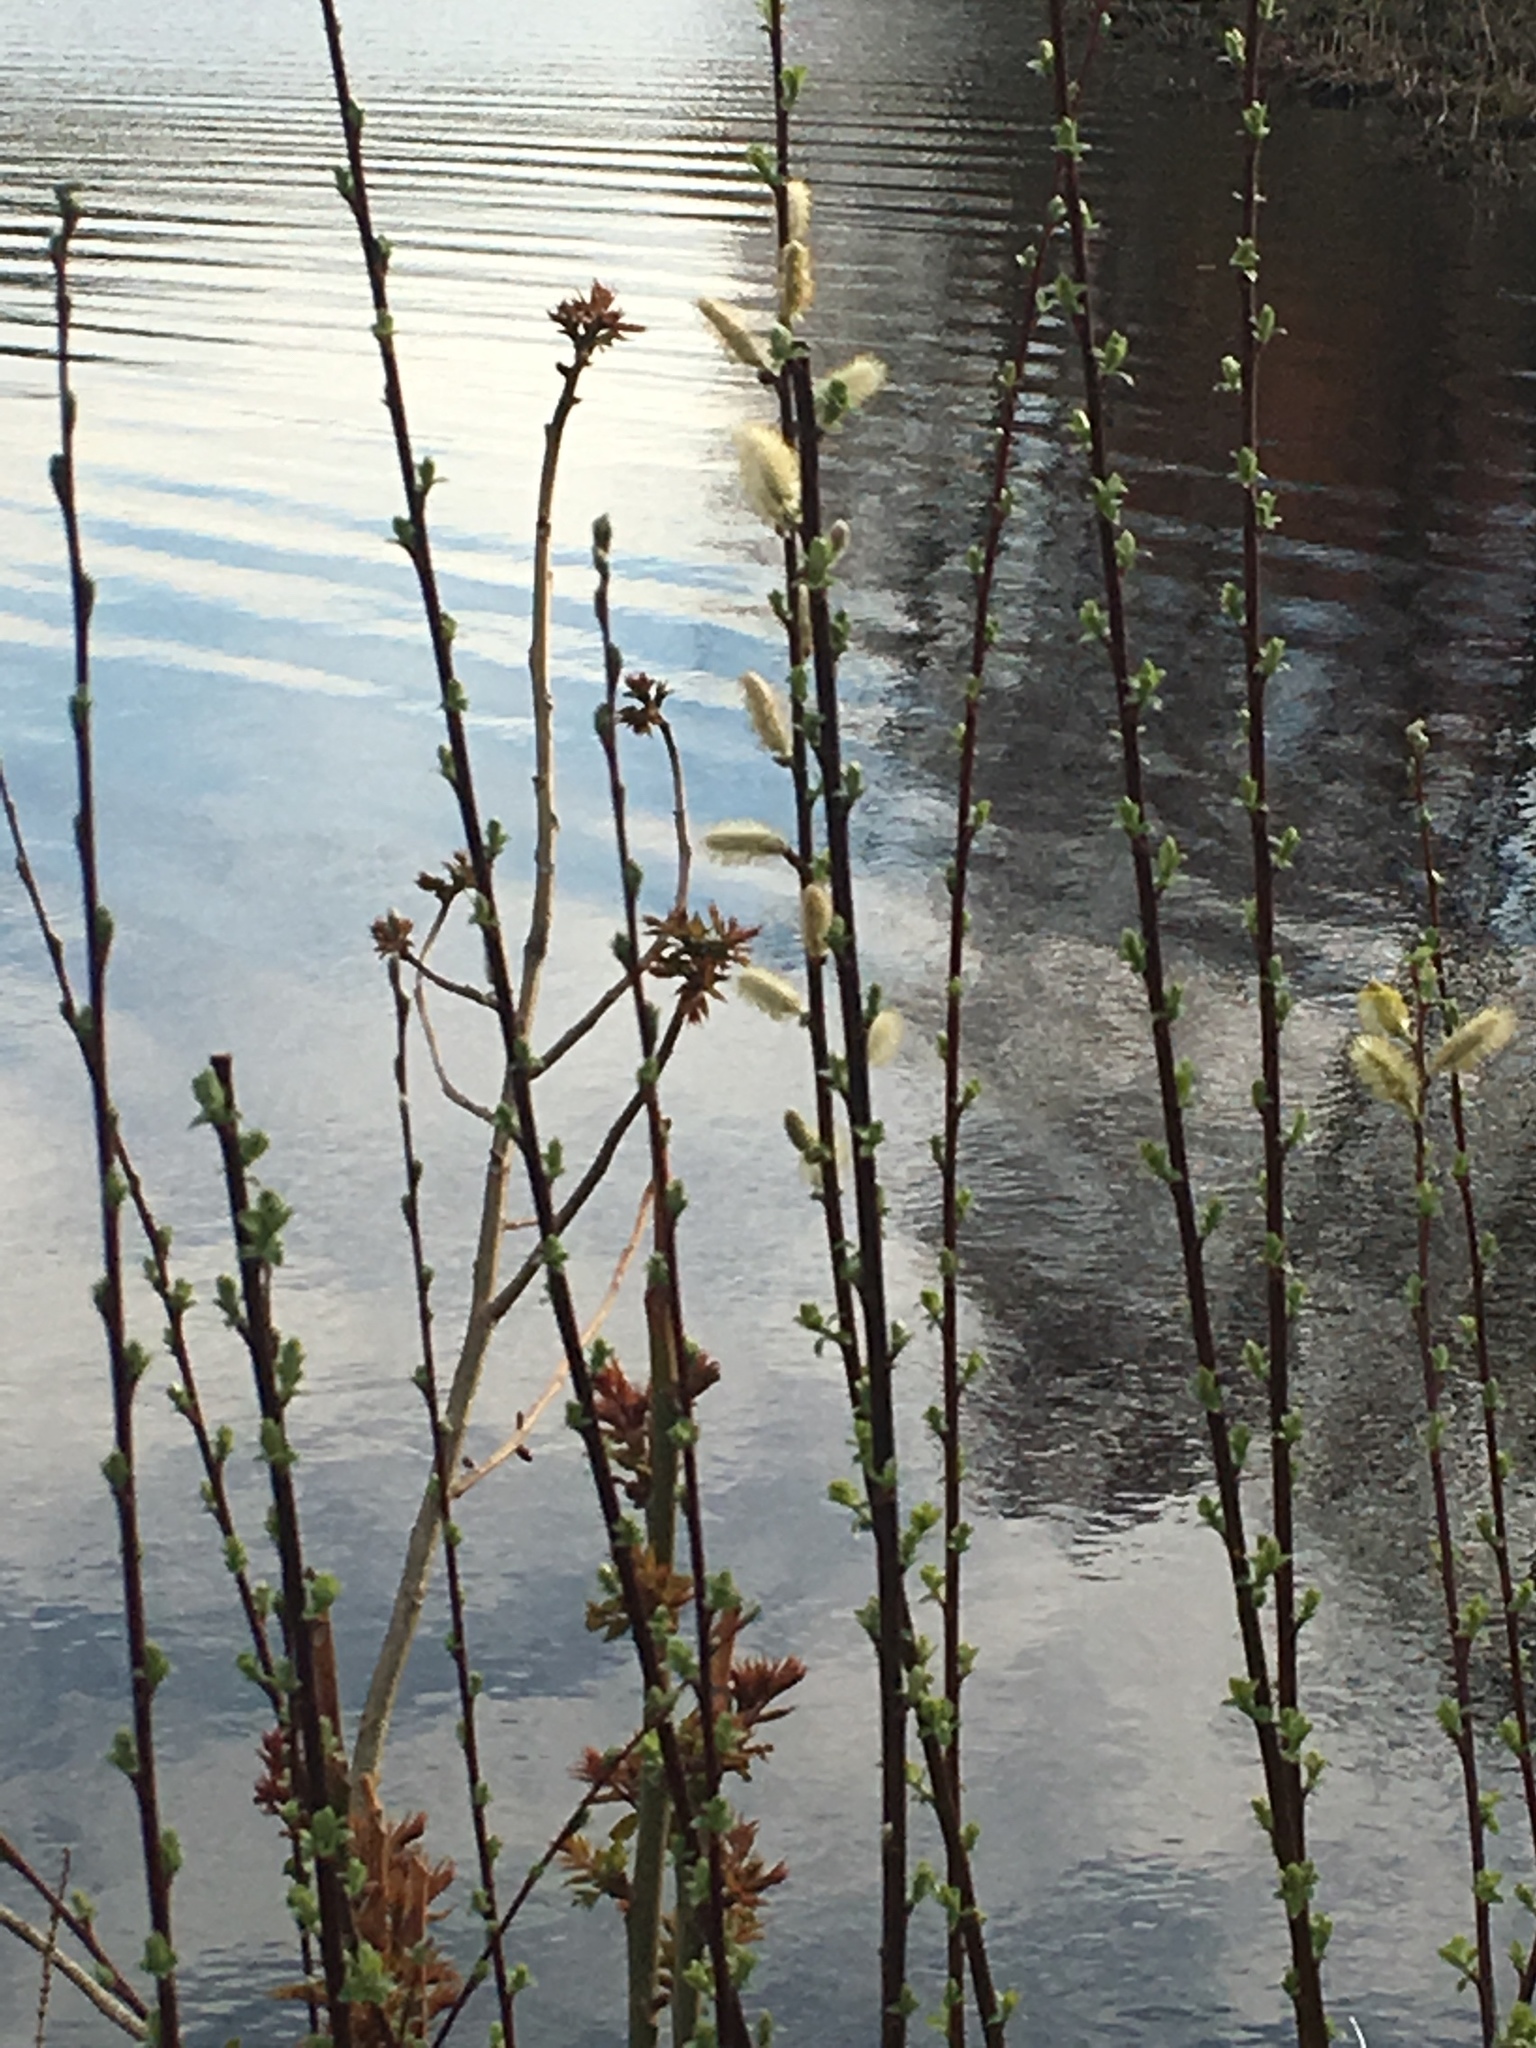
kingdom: Plantae
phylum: Tracheophyta
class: Magnoliopsida
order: Malpighiales
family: Salicaceae
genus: Salix
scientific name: Salix discolor
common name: Glaucous willow
